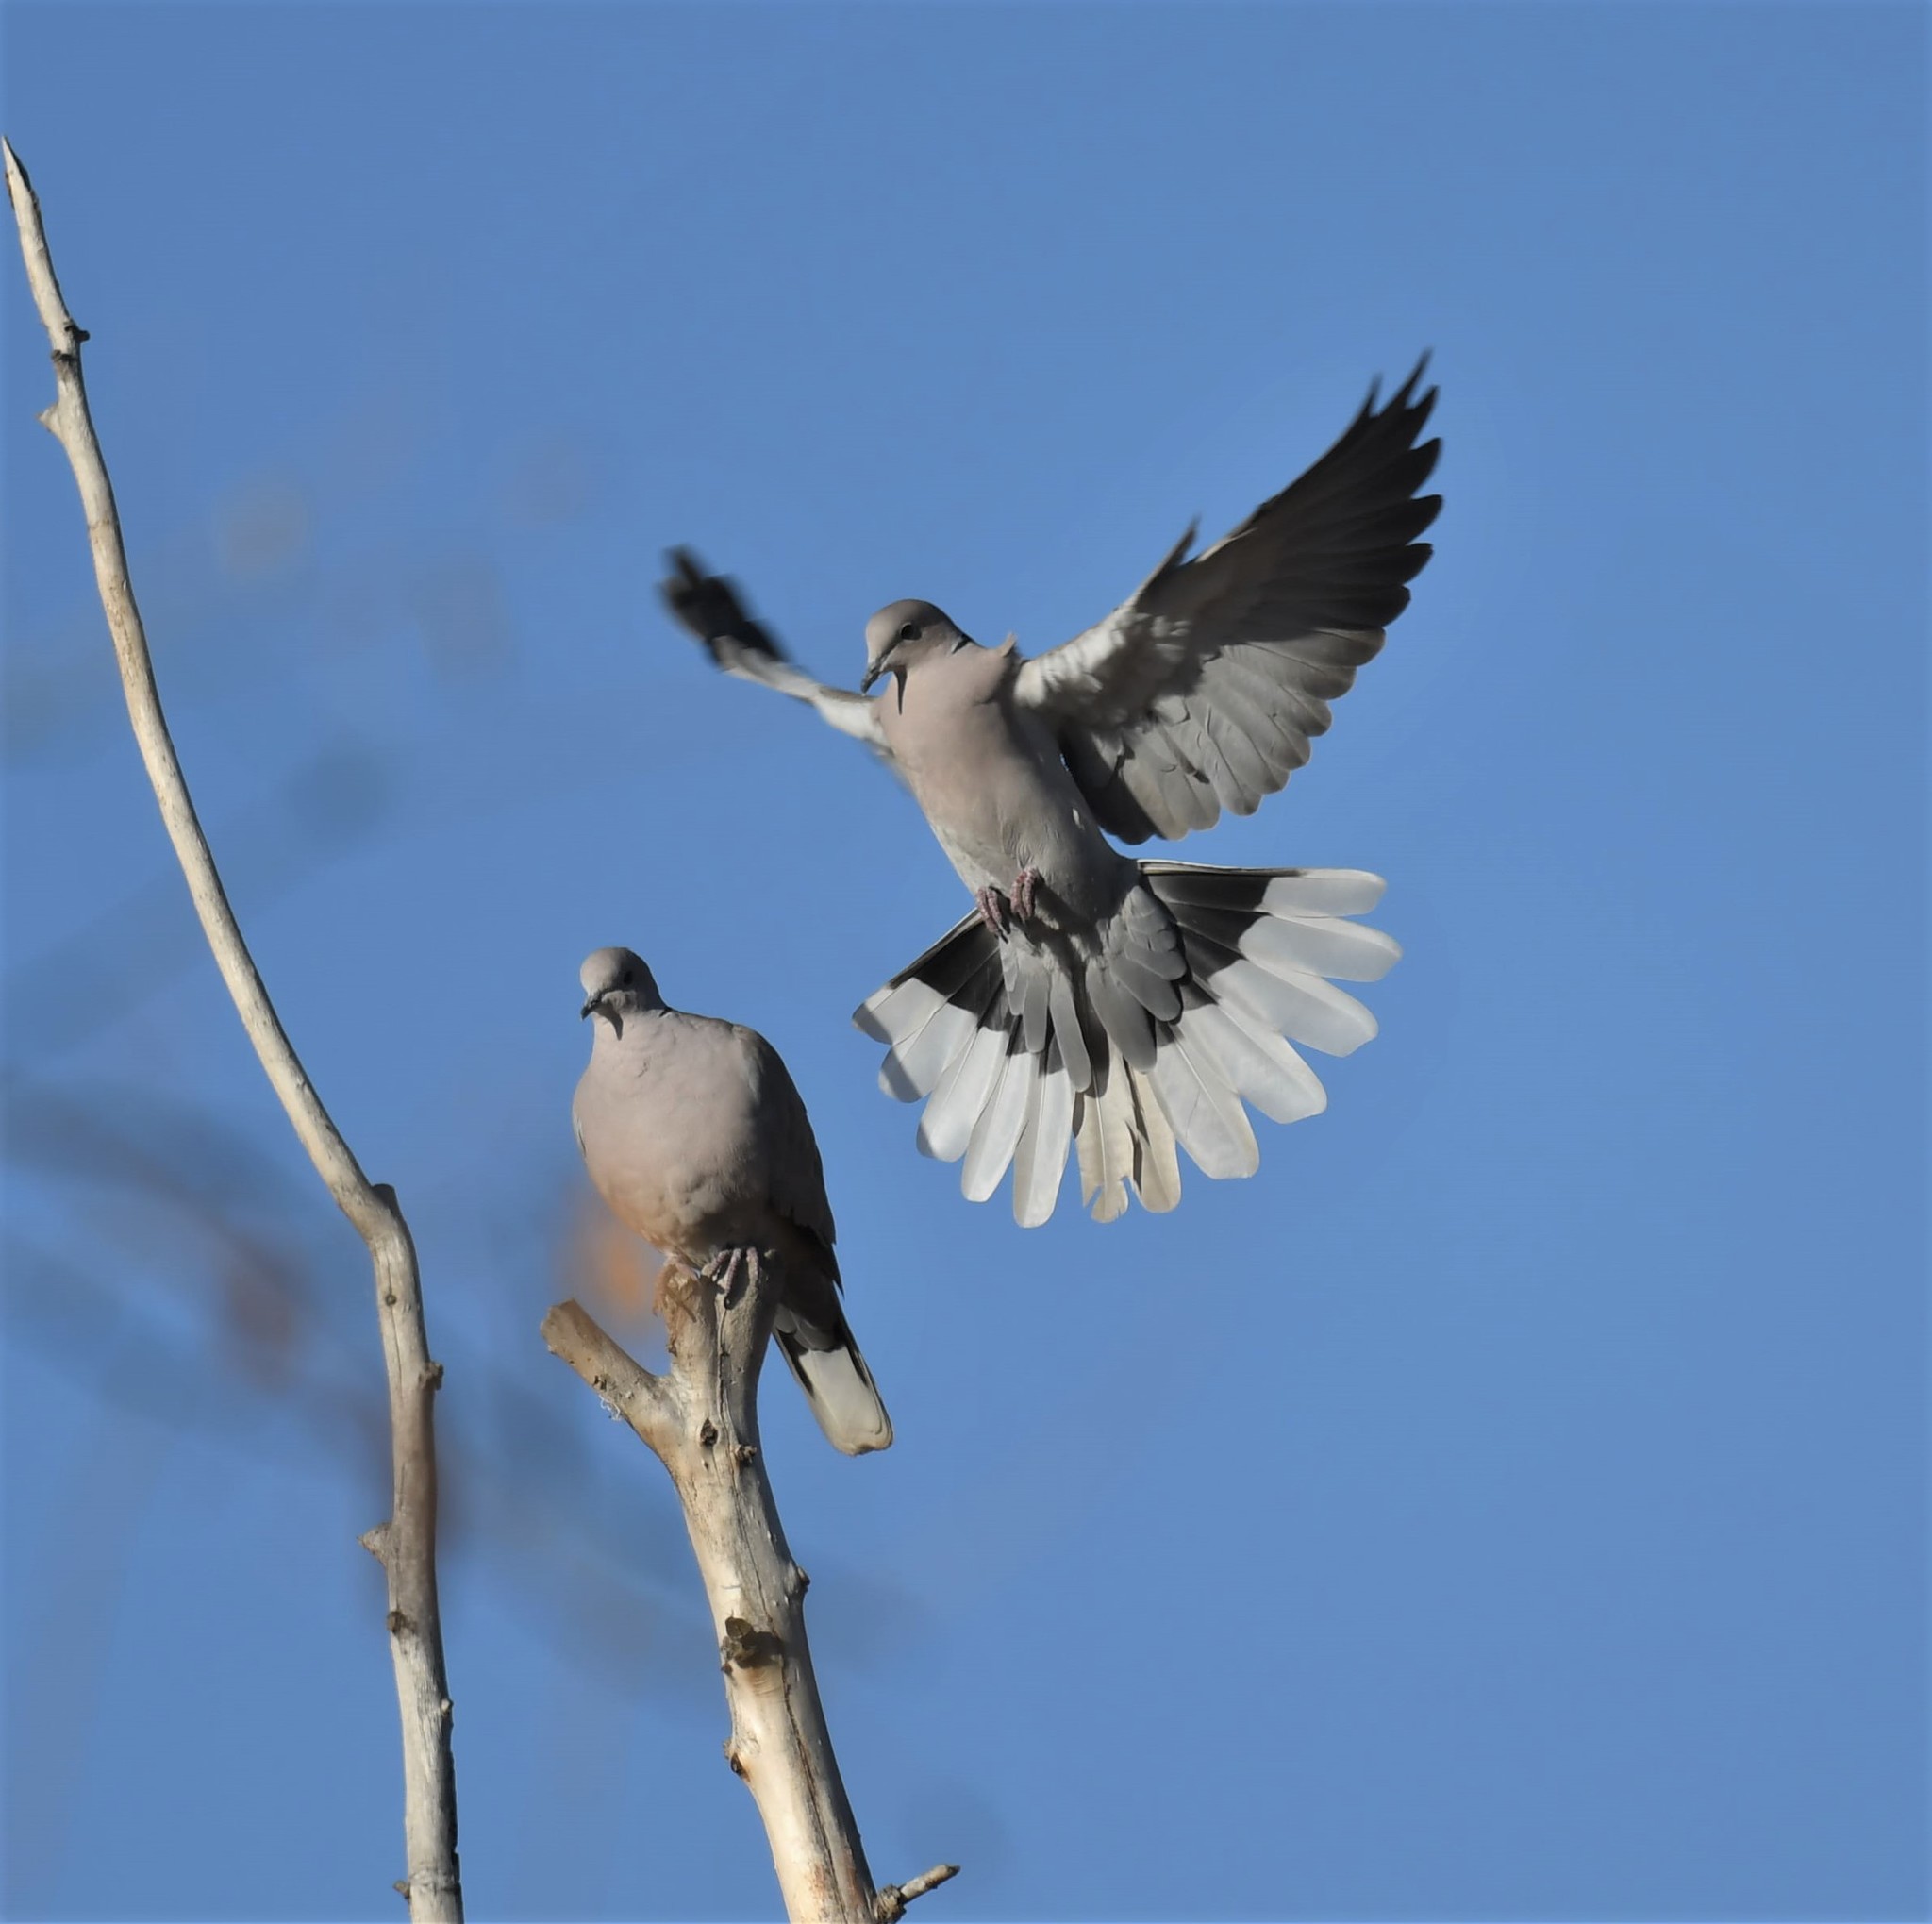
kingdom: Animalia
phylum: Chordata
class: Aves
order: Columbiformes
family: Columbidae
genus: Streptopelia
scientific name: Streptopelia decaocto
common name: Eurasian collared dove
